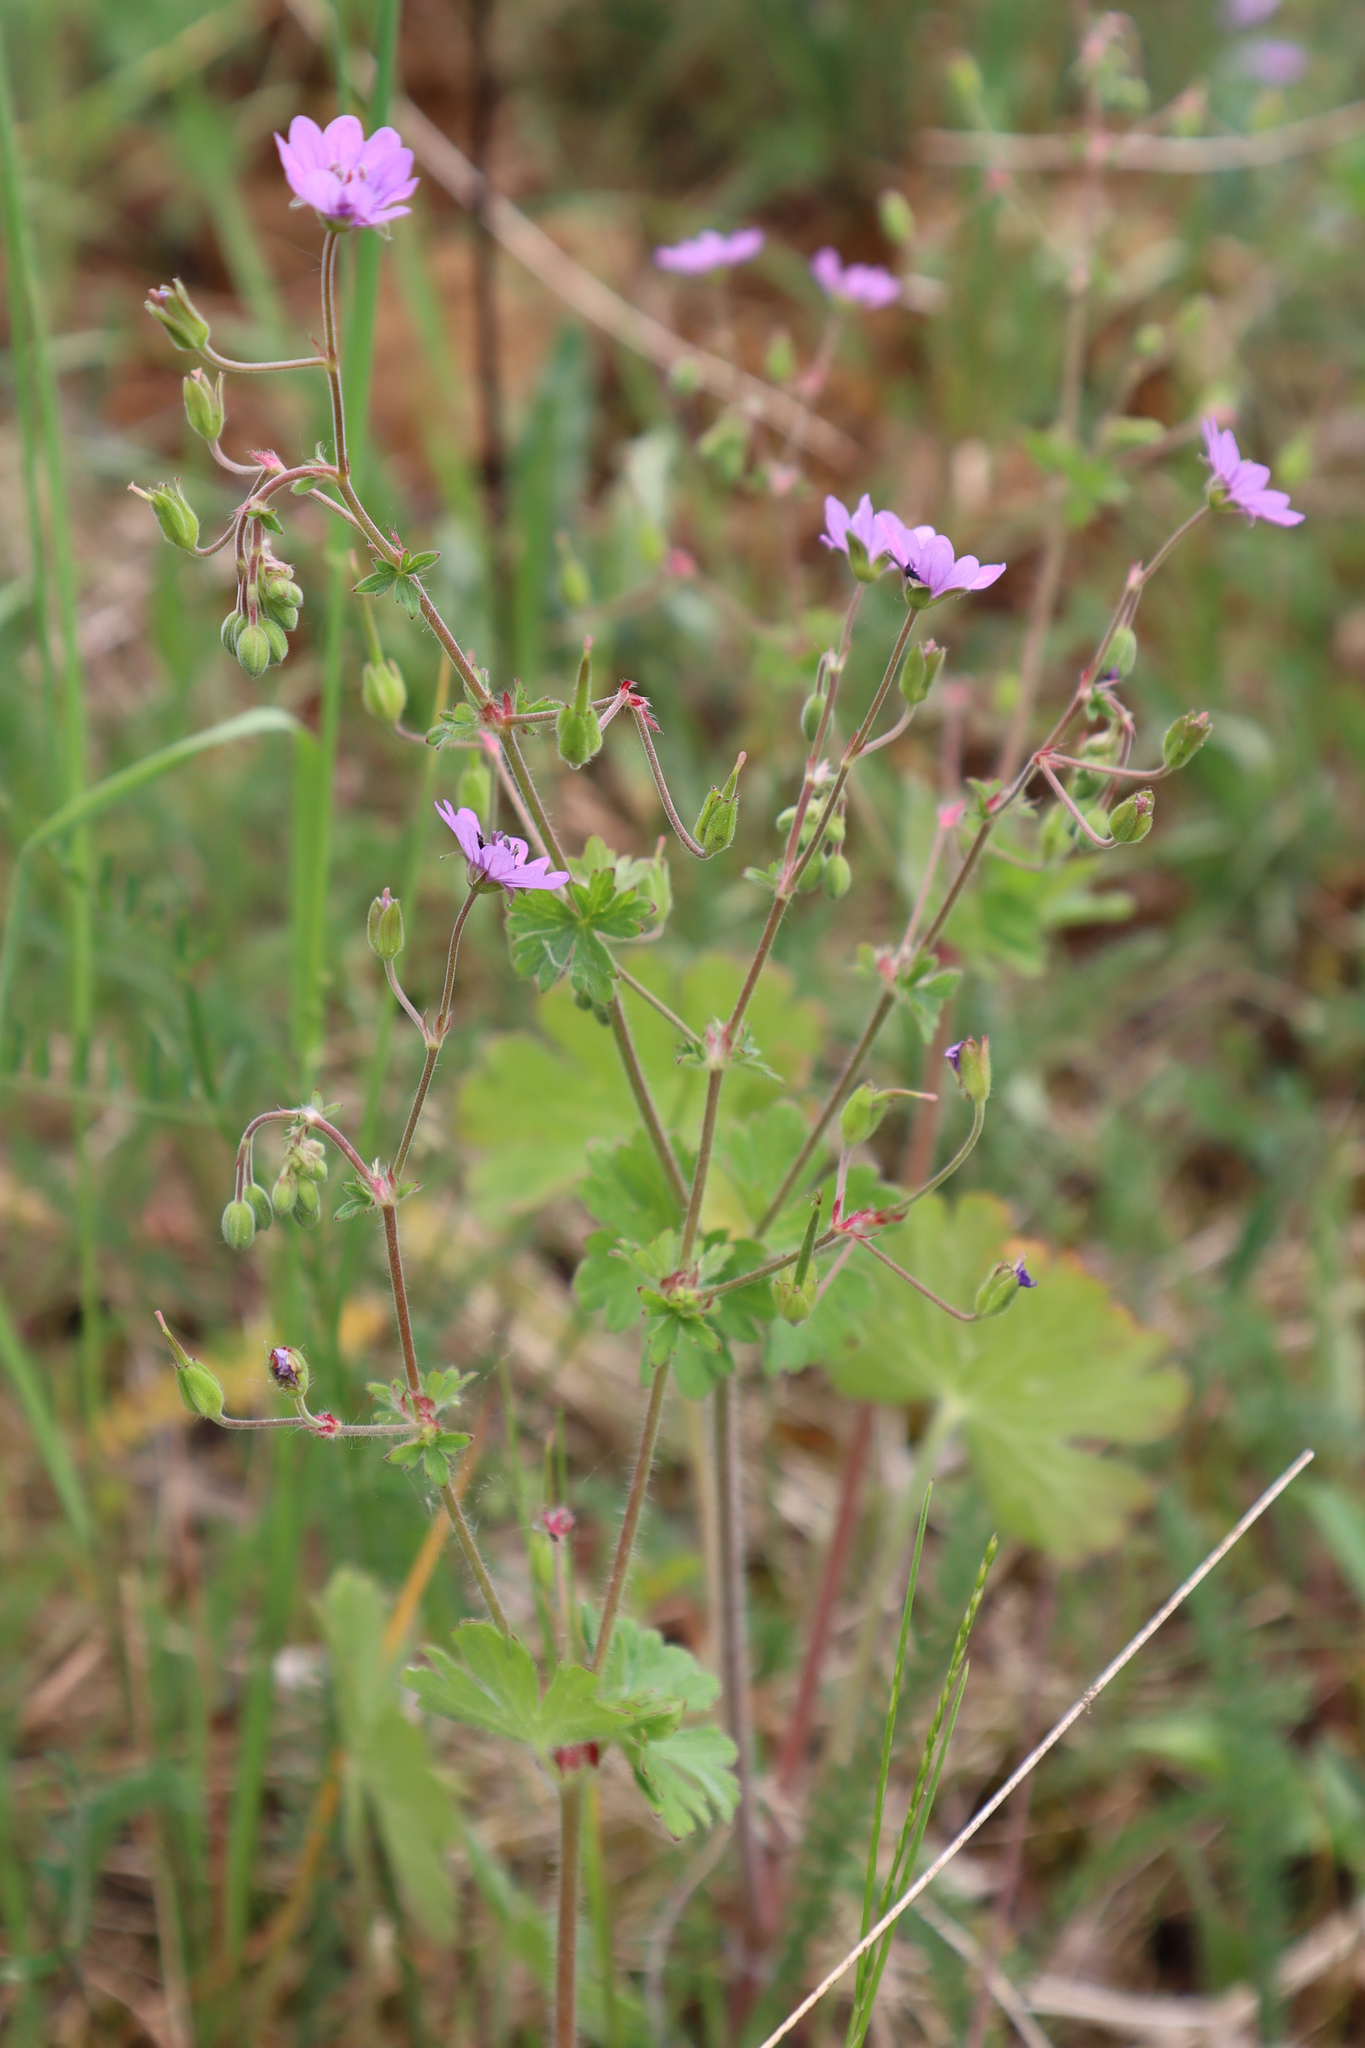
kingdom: Plantae
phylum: Tracheophyta
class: Magnoliopsida
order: Geraniales
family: Geraniaceae
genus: Geranium
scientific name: Geranium pyrenaicum
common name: Hedgerow crane's-bill
